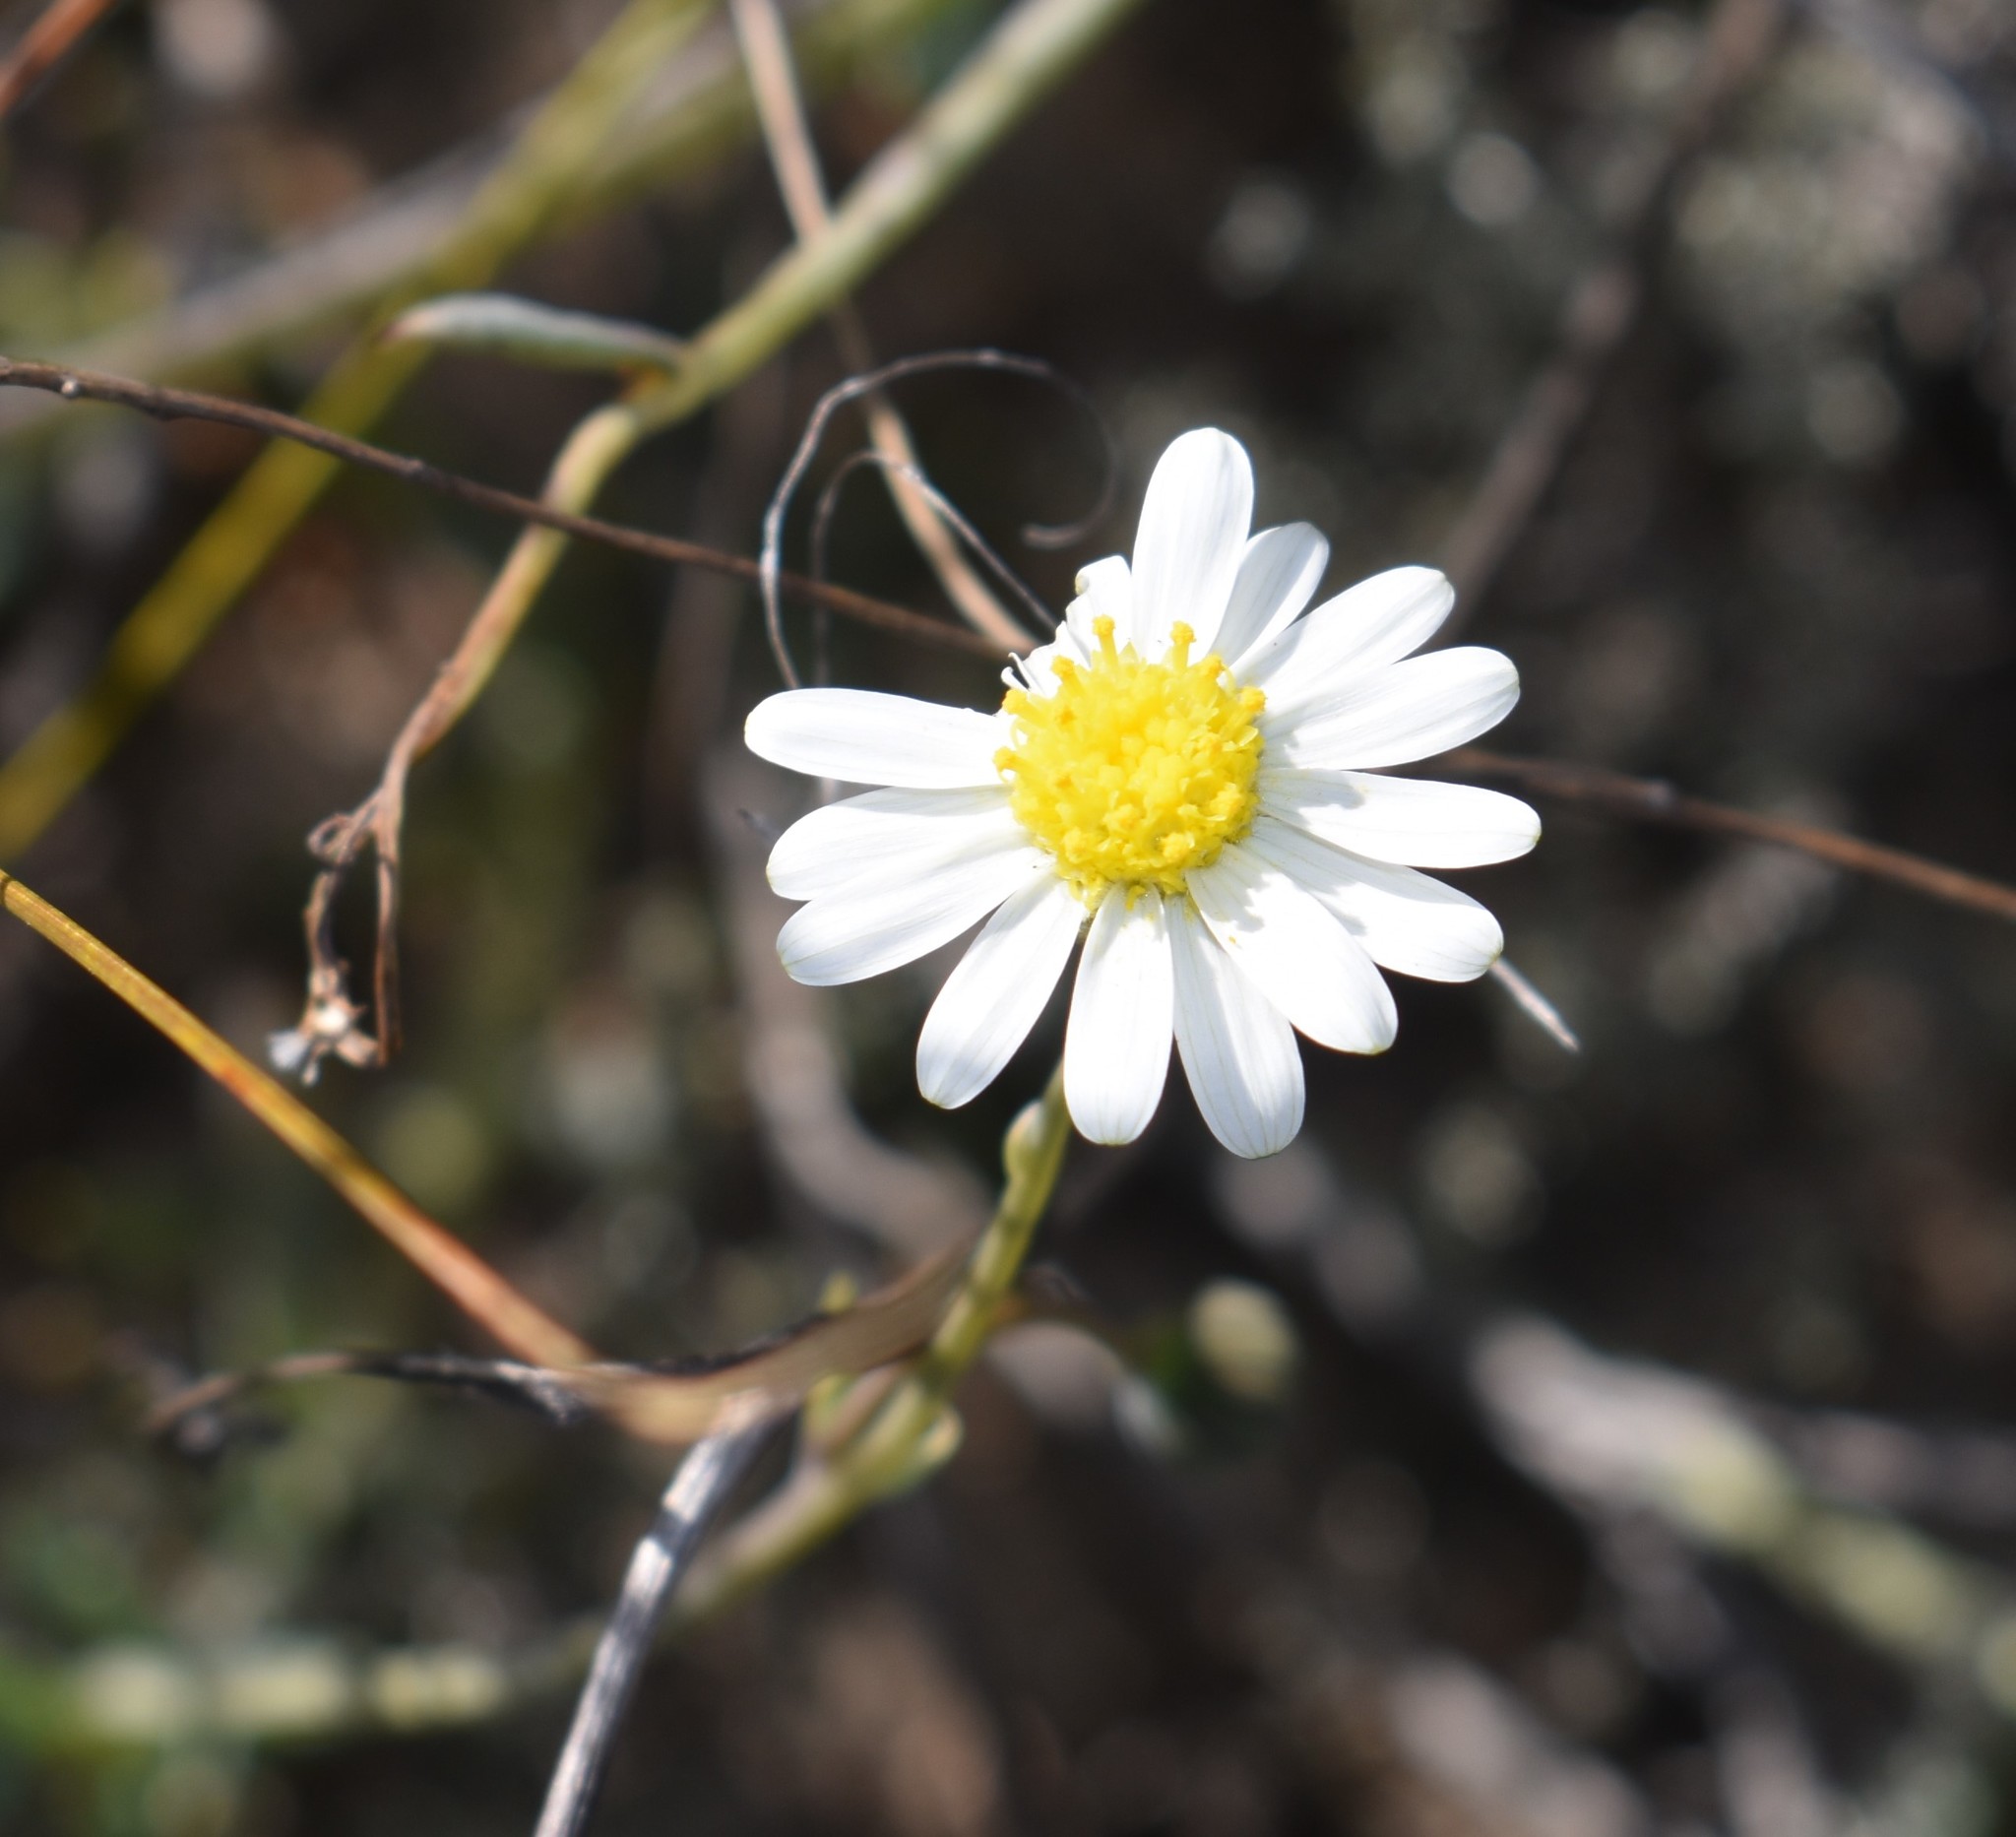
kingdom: Plantae
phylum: Tracheophyta
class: Magnoliopsida
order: Asterales
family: Asteraceae
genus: Crassothonna
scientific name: Crassothonna alba
